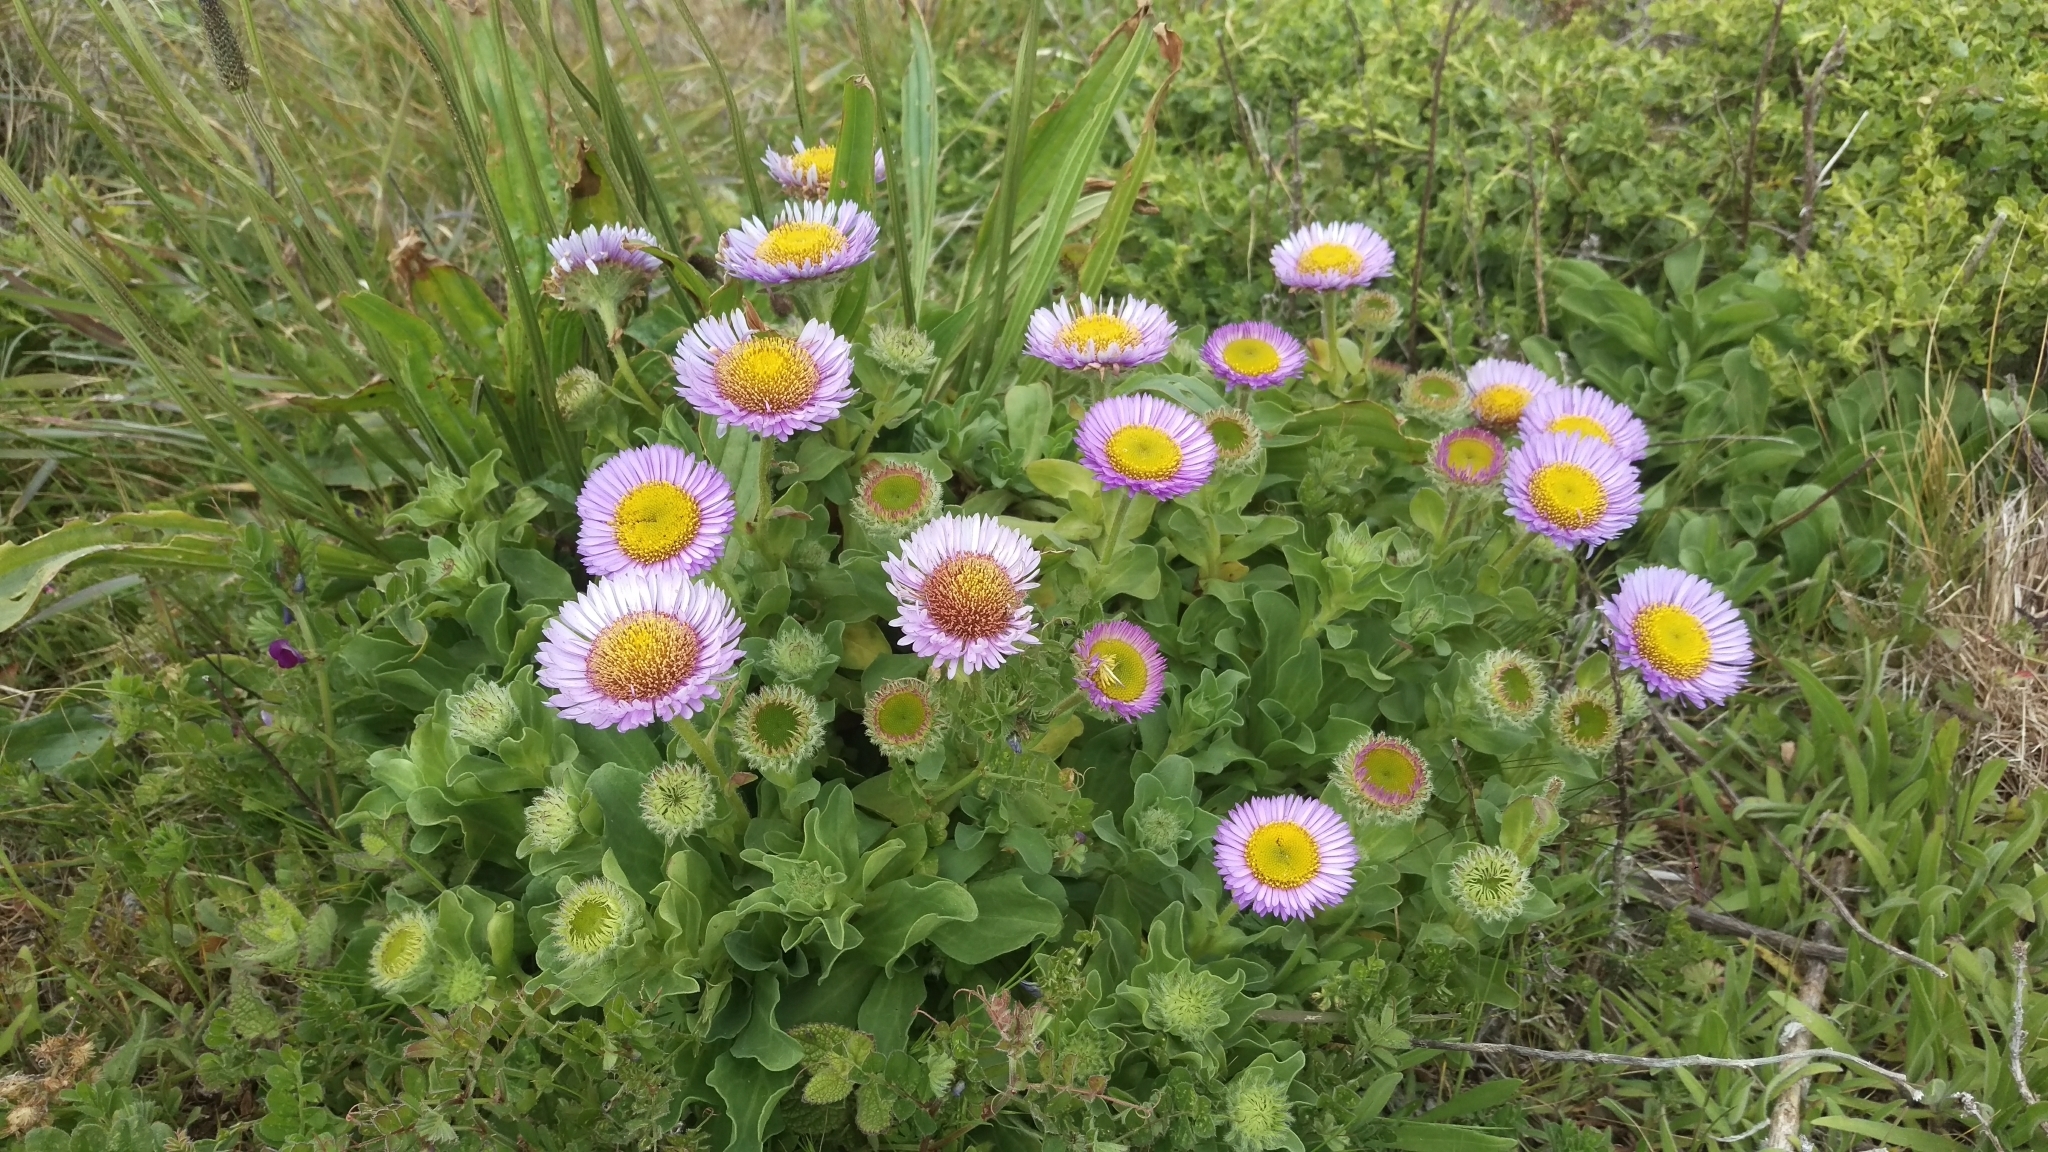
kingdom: Plantae
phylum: Tracheophyta
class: Magnoliopsida
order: Asterales
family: Asteraceae
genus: Erigeron
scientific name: Erigeron glaucus
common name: Seaside daisy
